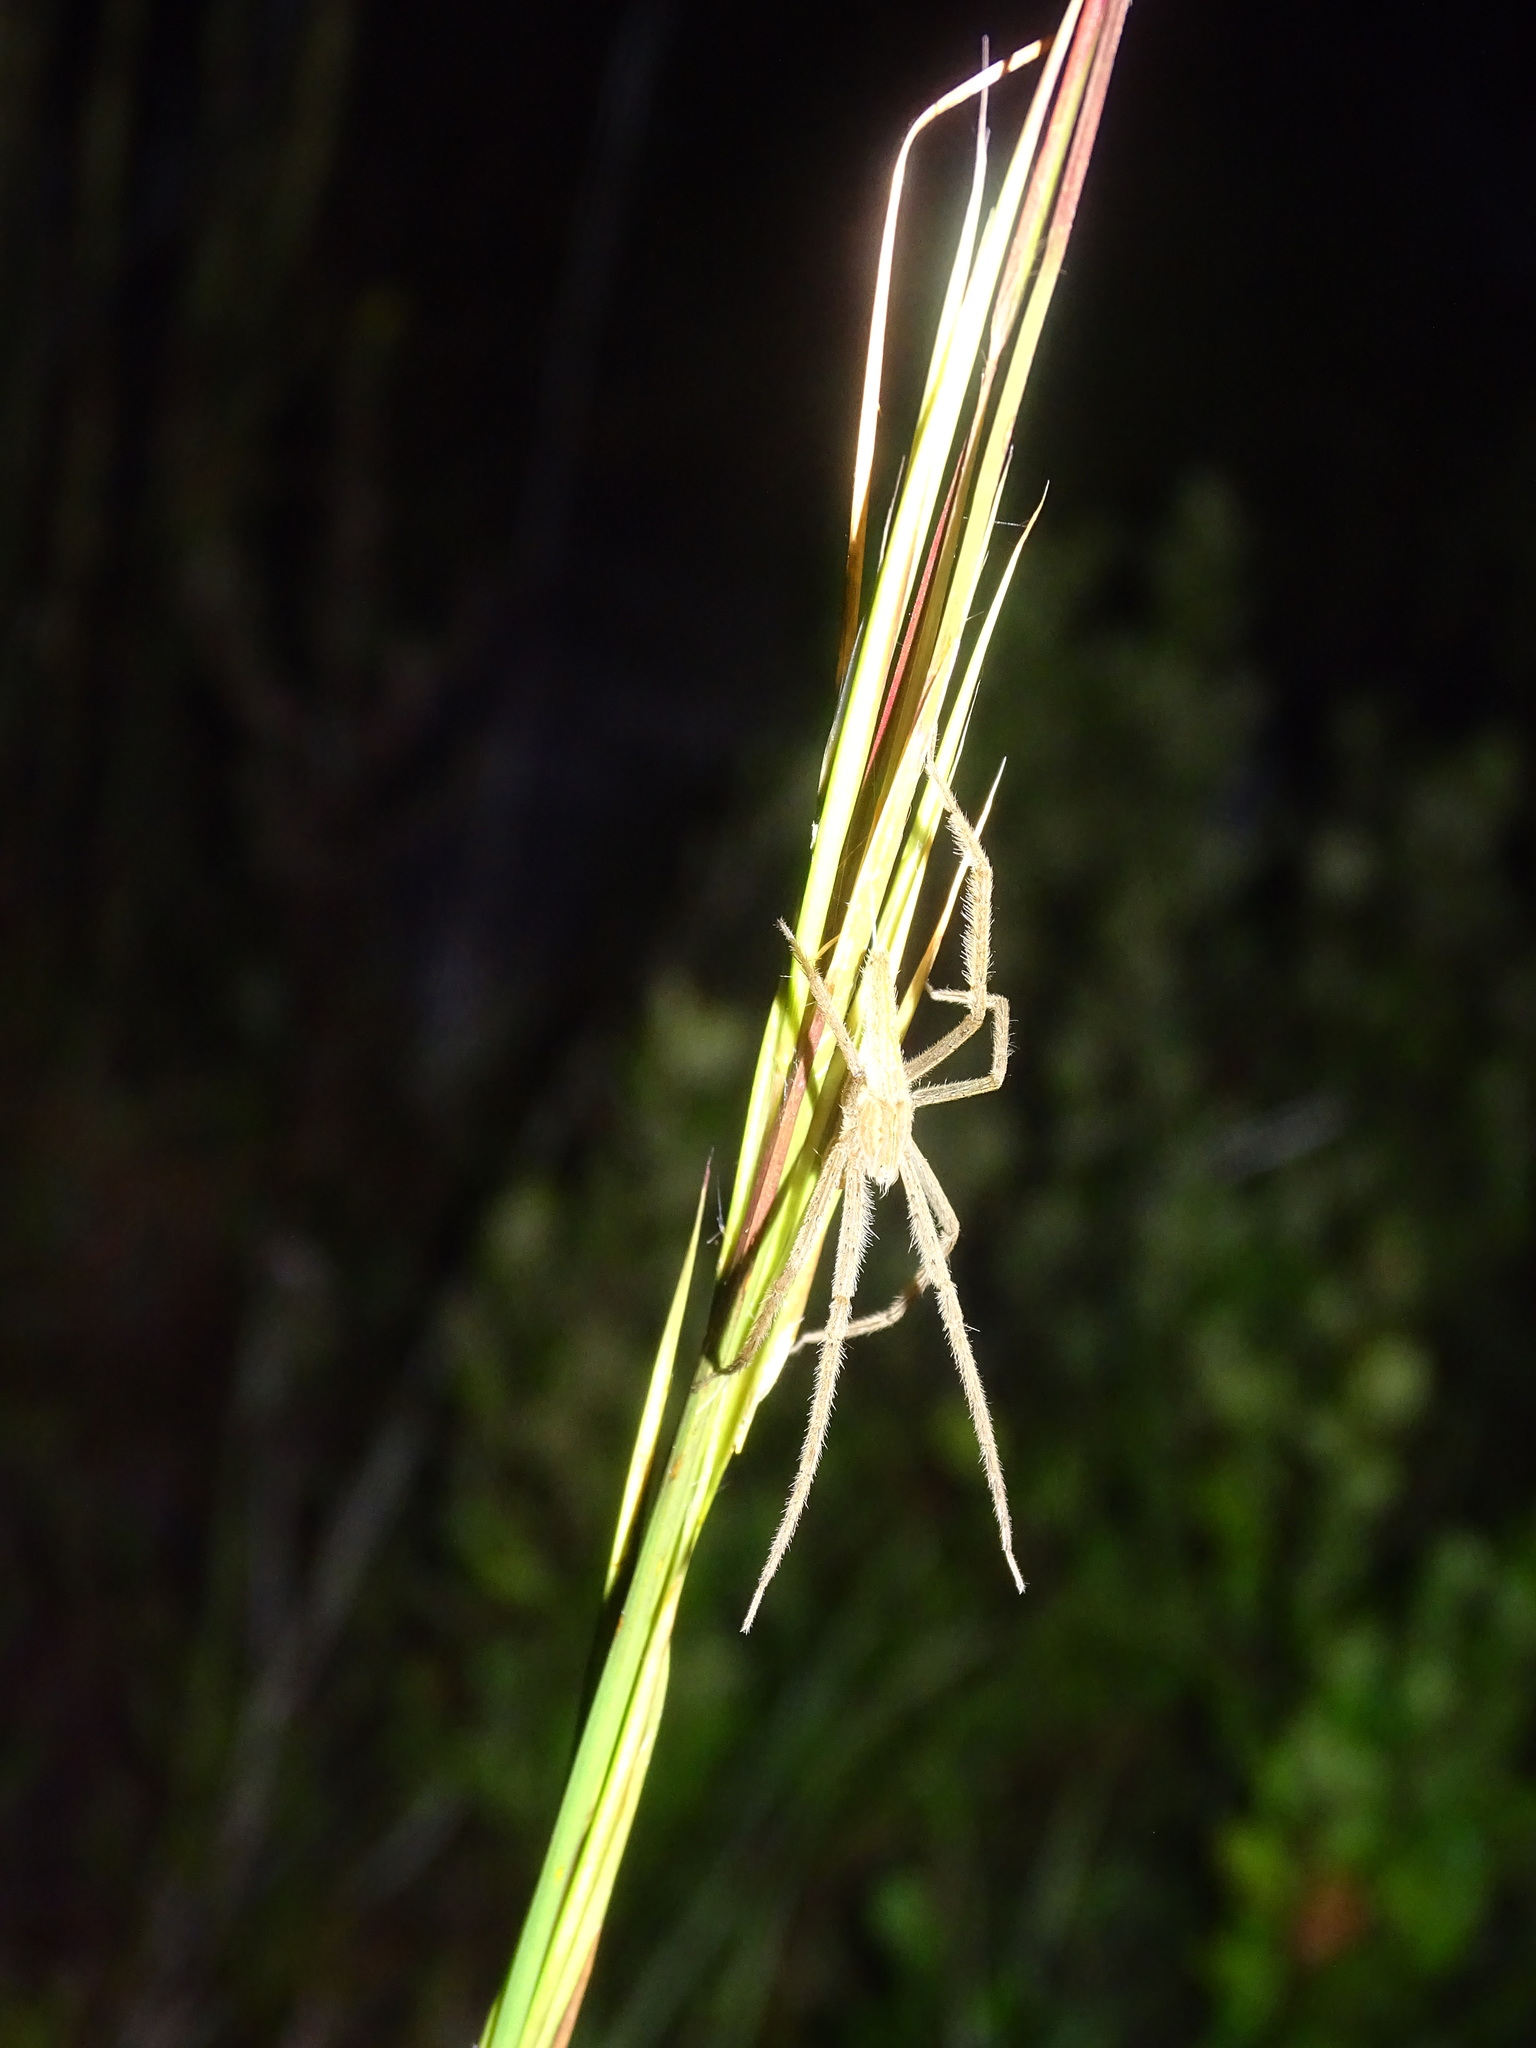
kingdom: Animalia
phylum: Arthropoda
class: Arachnida
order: Araneae
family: Pisauridae
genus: Pisaurina
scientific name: Pisaurina undulata
